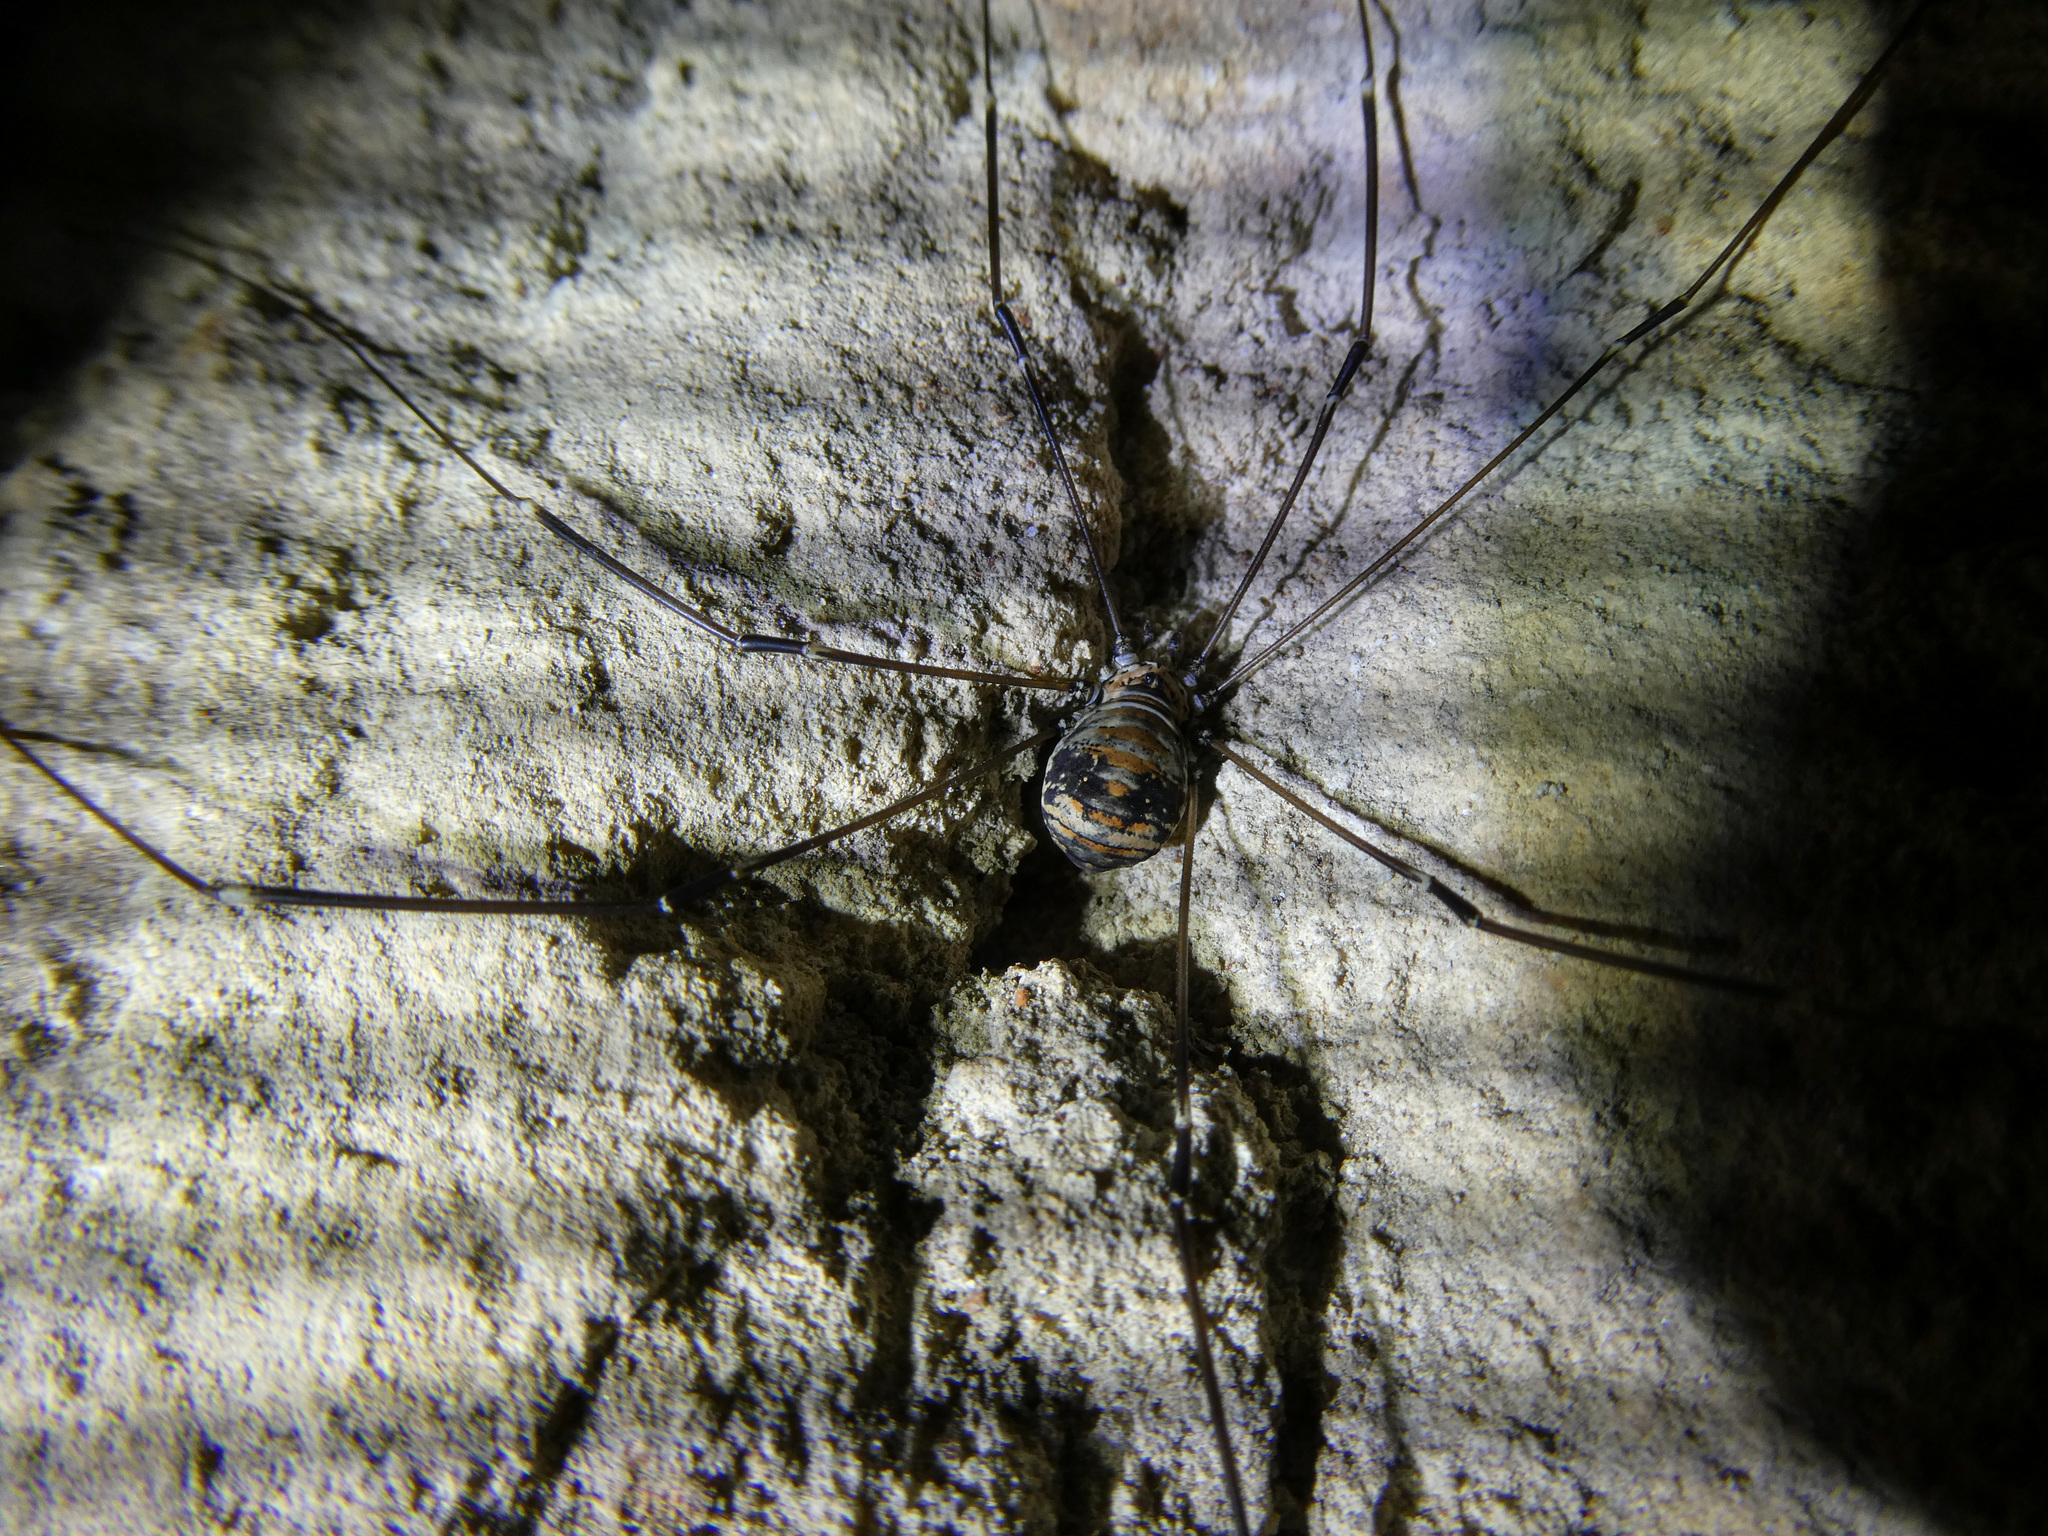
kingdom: Animalia
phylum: Arthropoda
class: Arachnida
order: Opiliones
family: Sclerosomatidae
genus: Leiobunum
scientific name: Leiobunum limbatum
